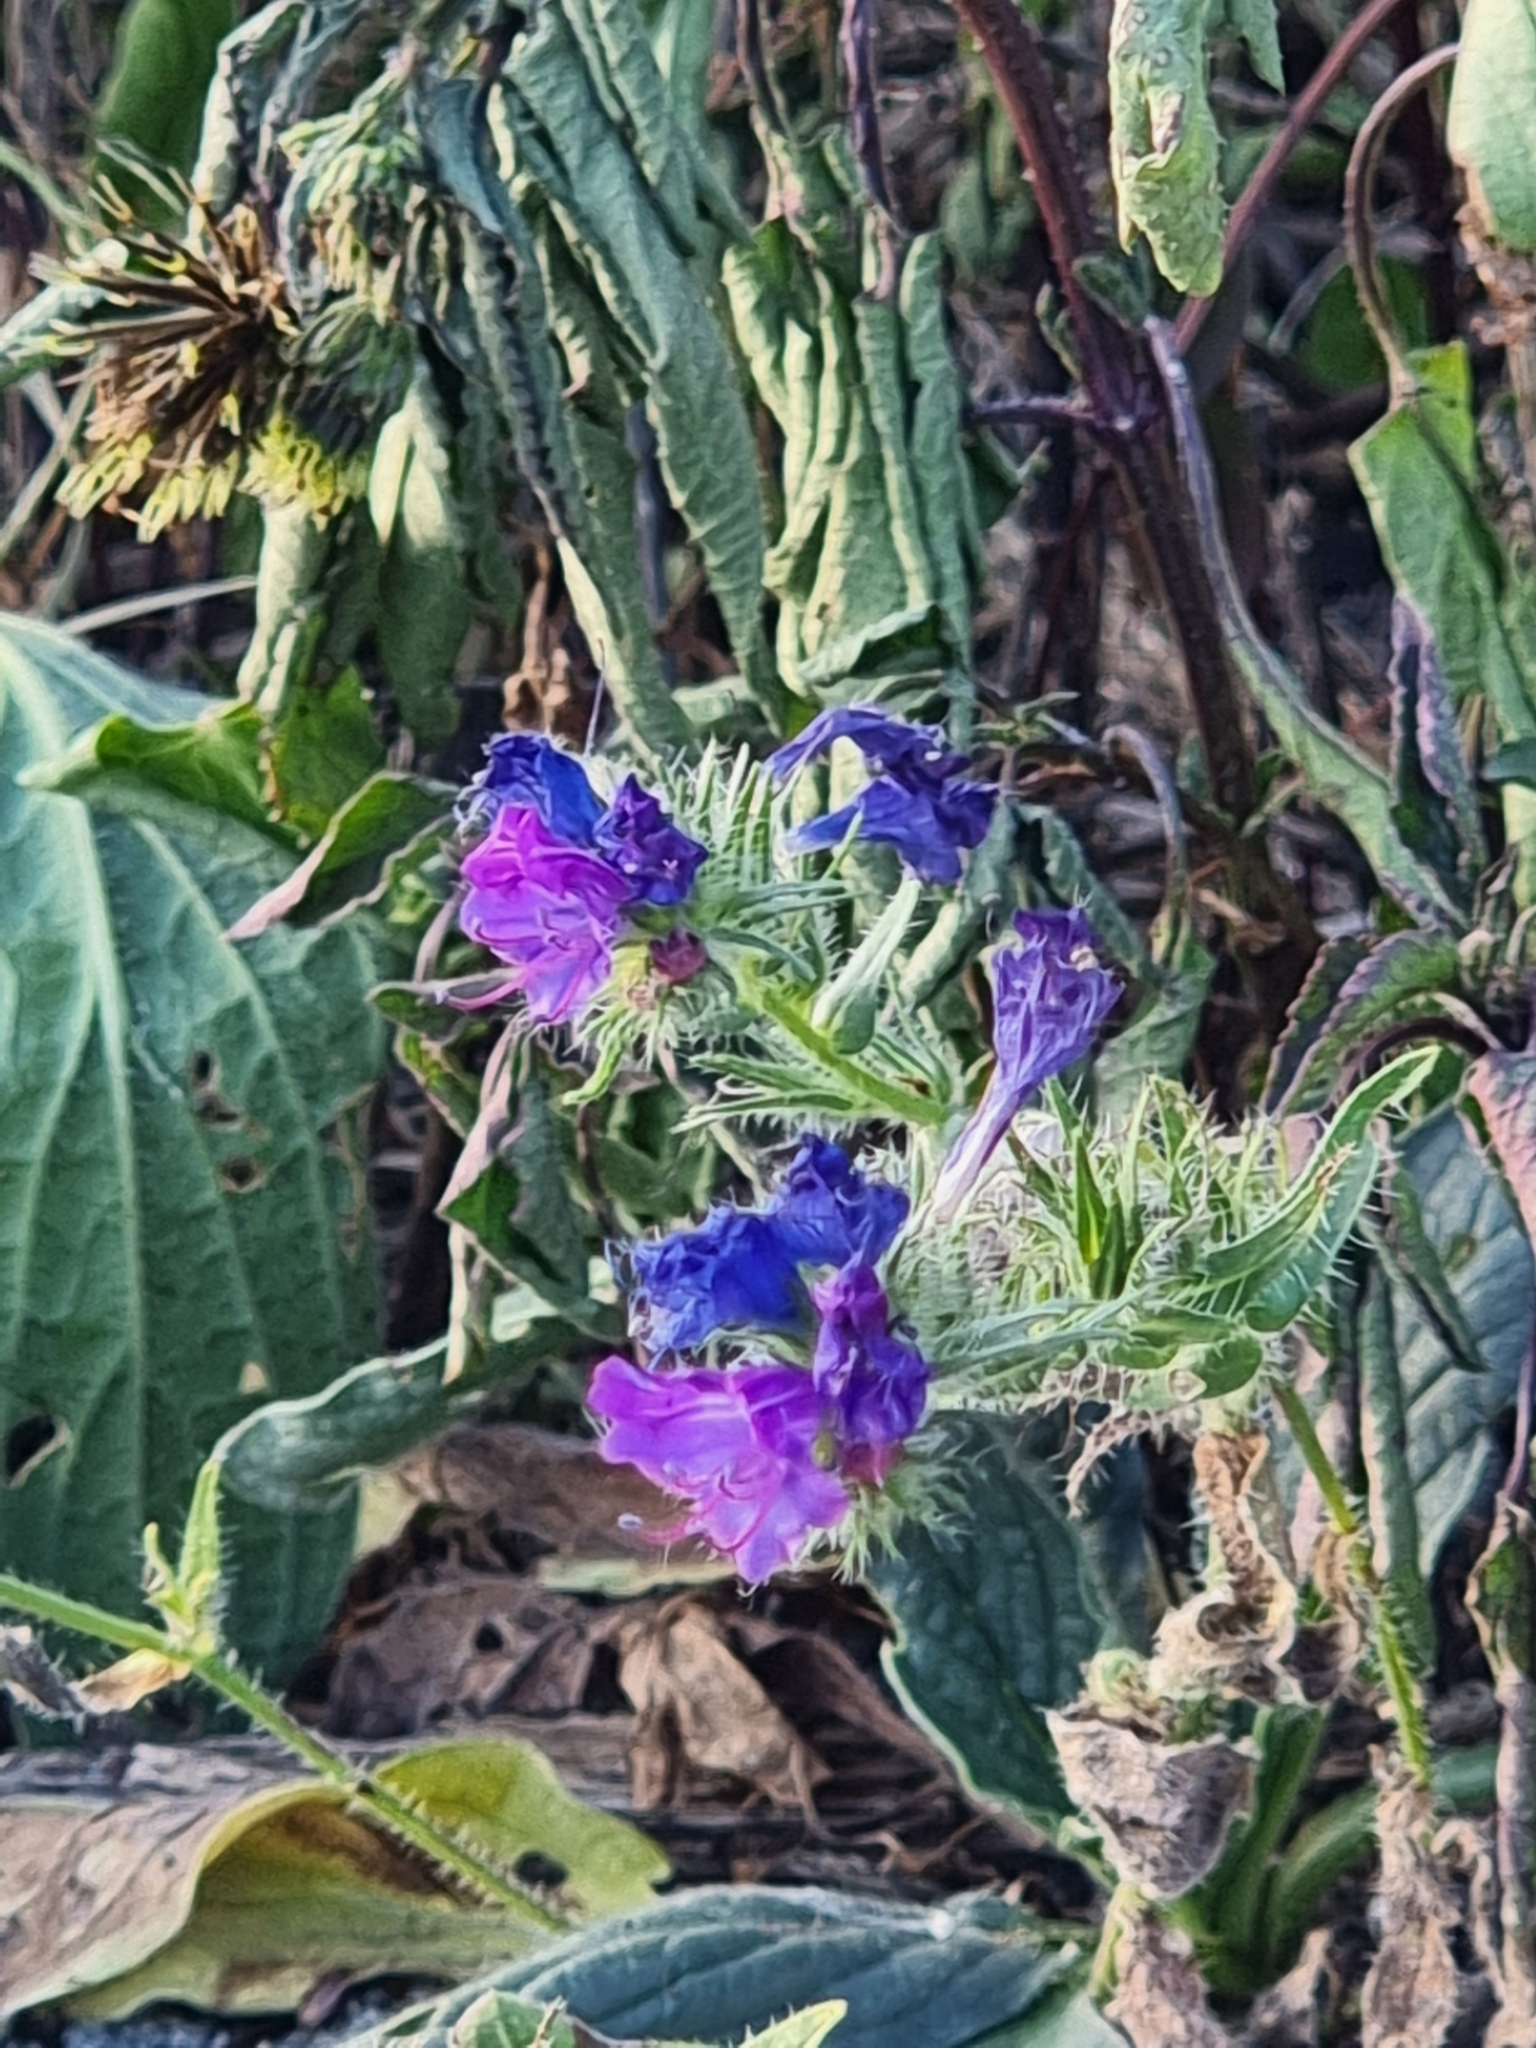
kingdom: Plantae
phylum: Tracheophyta
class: Magnoliopsida
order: Boraginales
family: Boraginaceae
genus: Echium
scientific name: Echium plantagineum
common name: Purple viper's-bugloss
